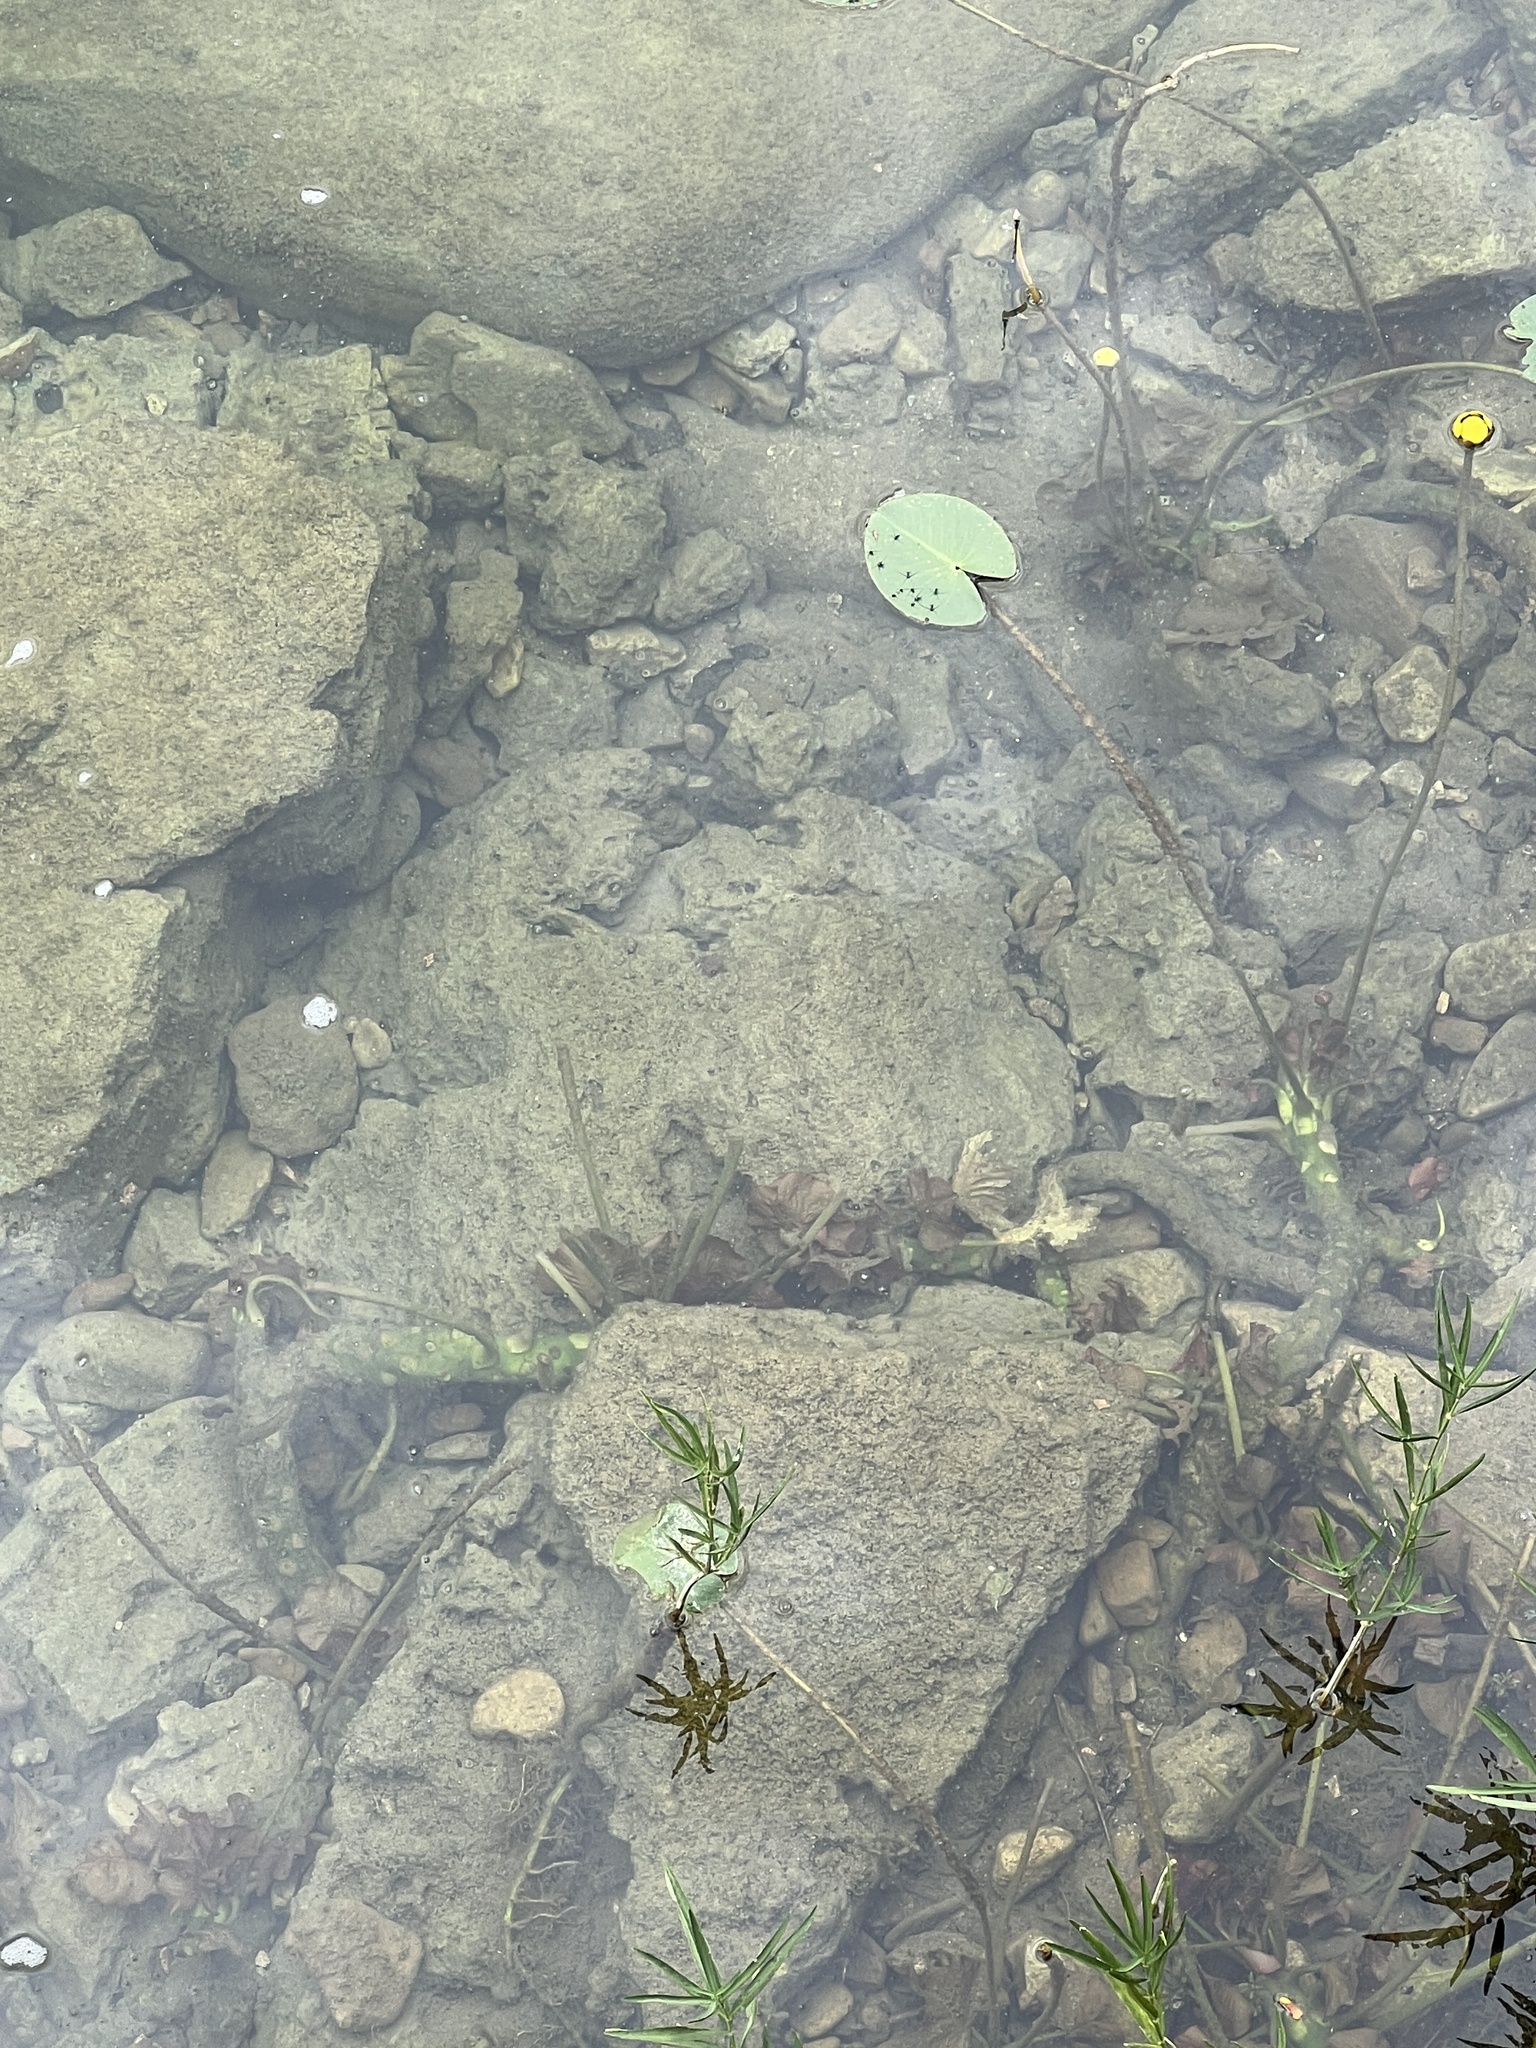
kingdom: Plantae
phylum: Tracheophyta
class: Magnoliopsida
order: Nymphaeales
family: Nymphaeaceae
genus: Nuphar
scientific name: Nuphar advena
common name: Spatter-dock
